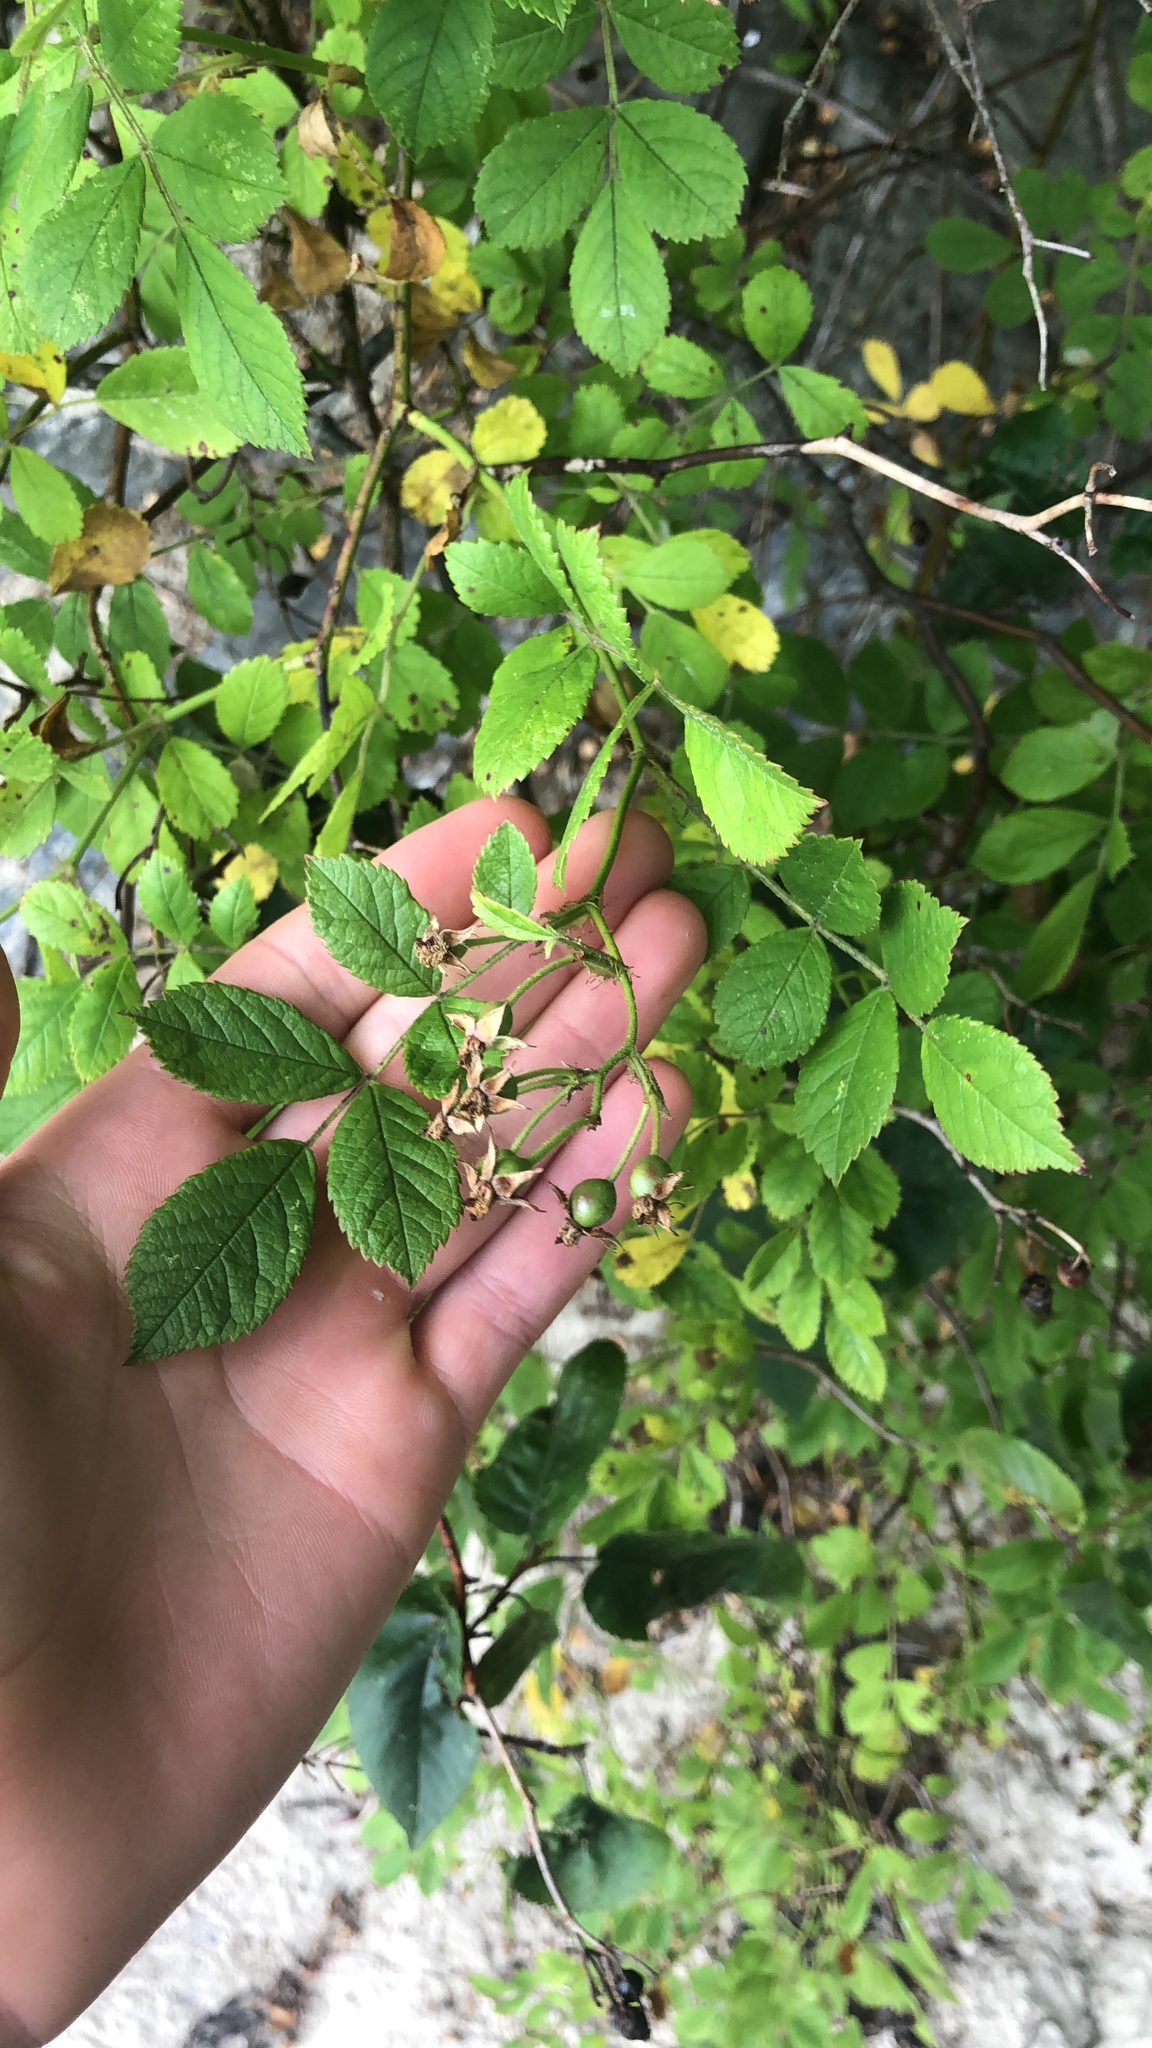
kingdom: Plantae
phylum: Tracheophyta
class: Magnoliopsida
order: Rosales
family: Rosaceae
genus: Rosa
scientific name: Rosa multiflora
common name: Multiflora rose
